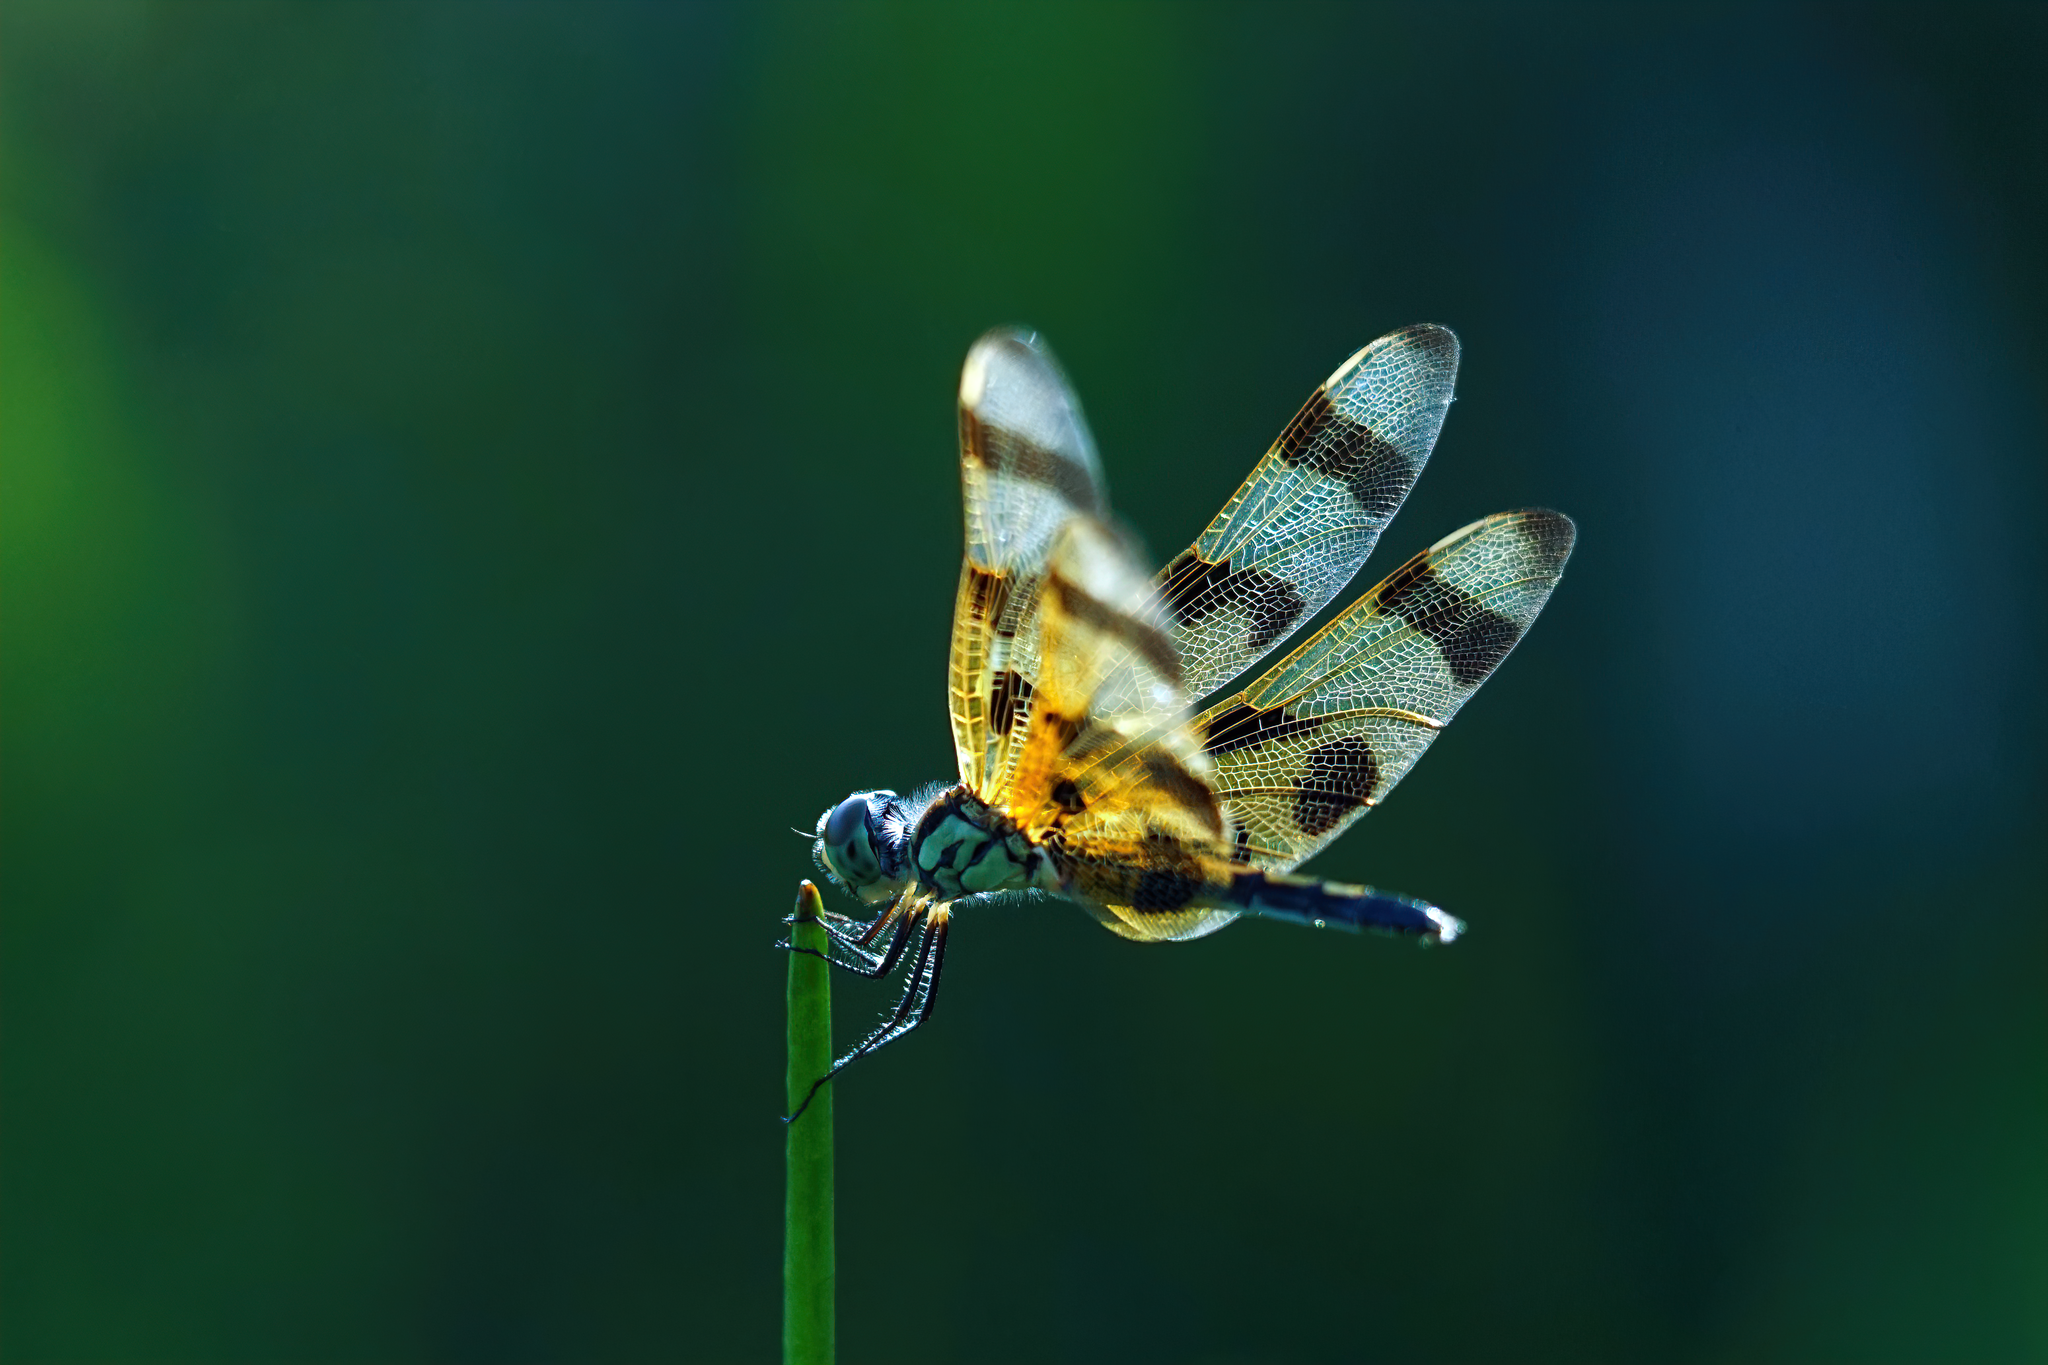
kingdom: Animalia
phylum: Arthropoda
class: Insecta
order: Odonata
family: Libellulidae
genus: Celithemis
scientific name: Celithemis eponina
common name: Halloween pennant
